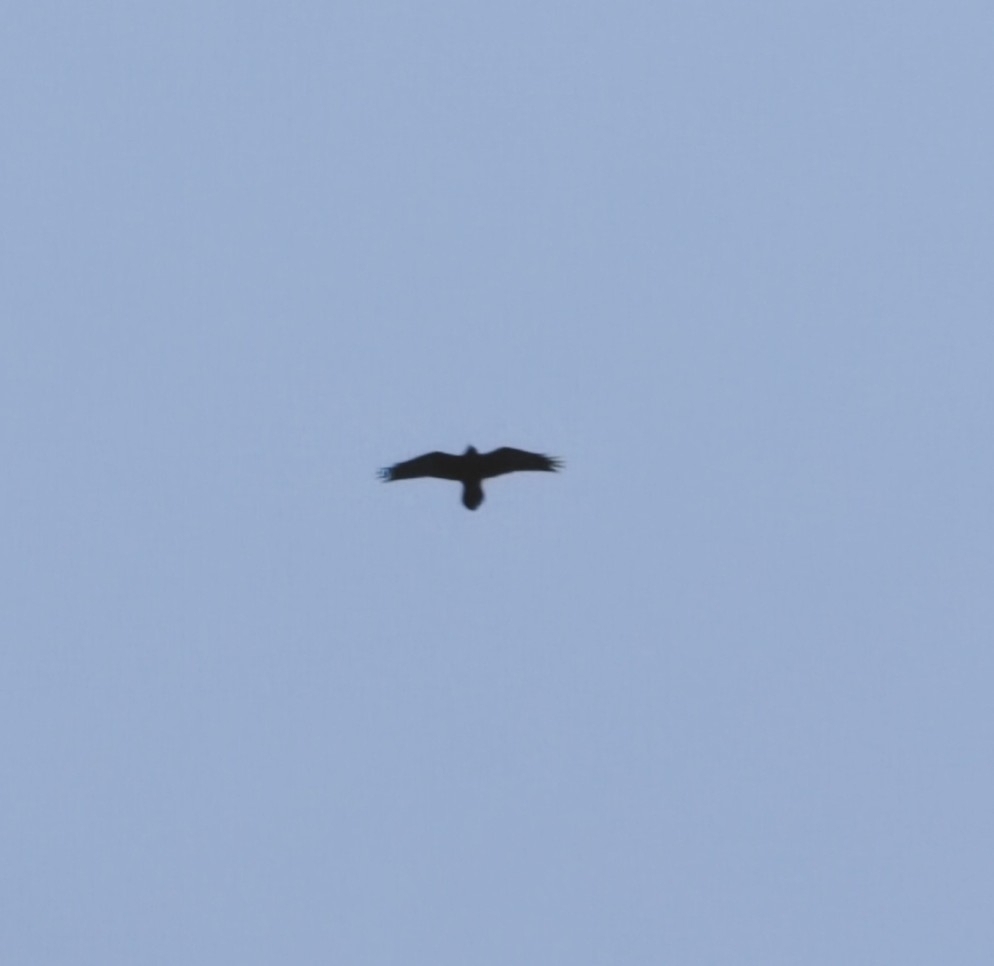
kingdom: Animalia
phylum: Chordata
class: Aves
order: Passeriformes
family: Corvidae
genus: Corvus
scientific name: Corvus corax
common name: Common raven
